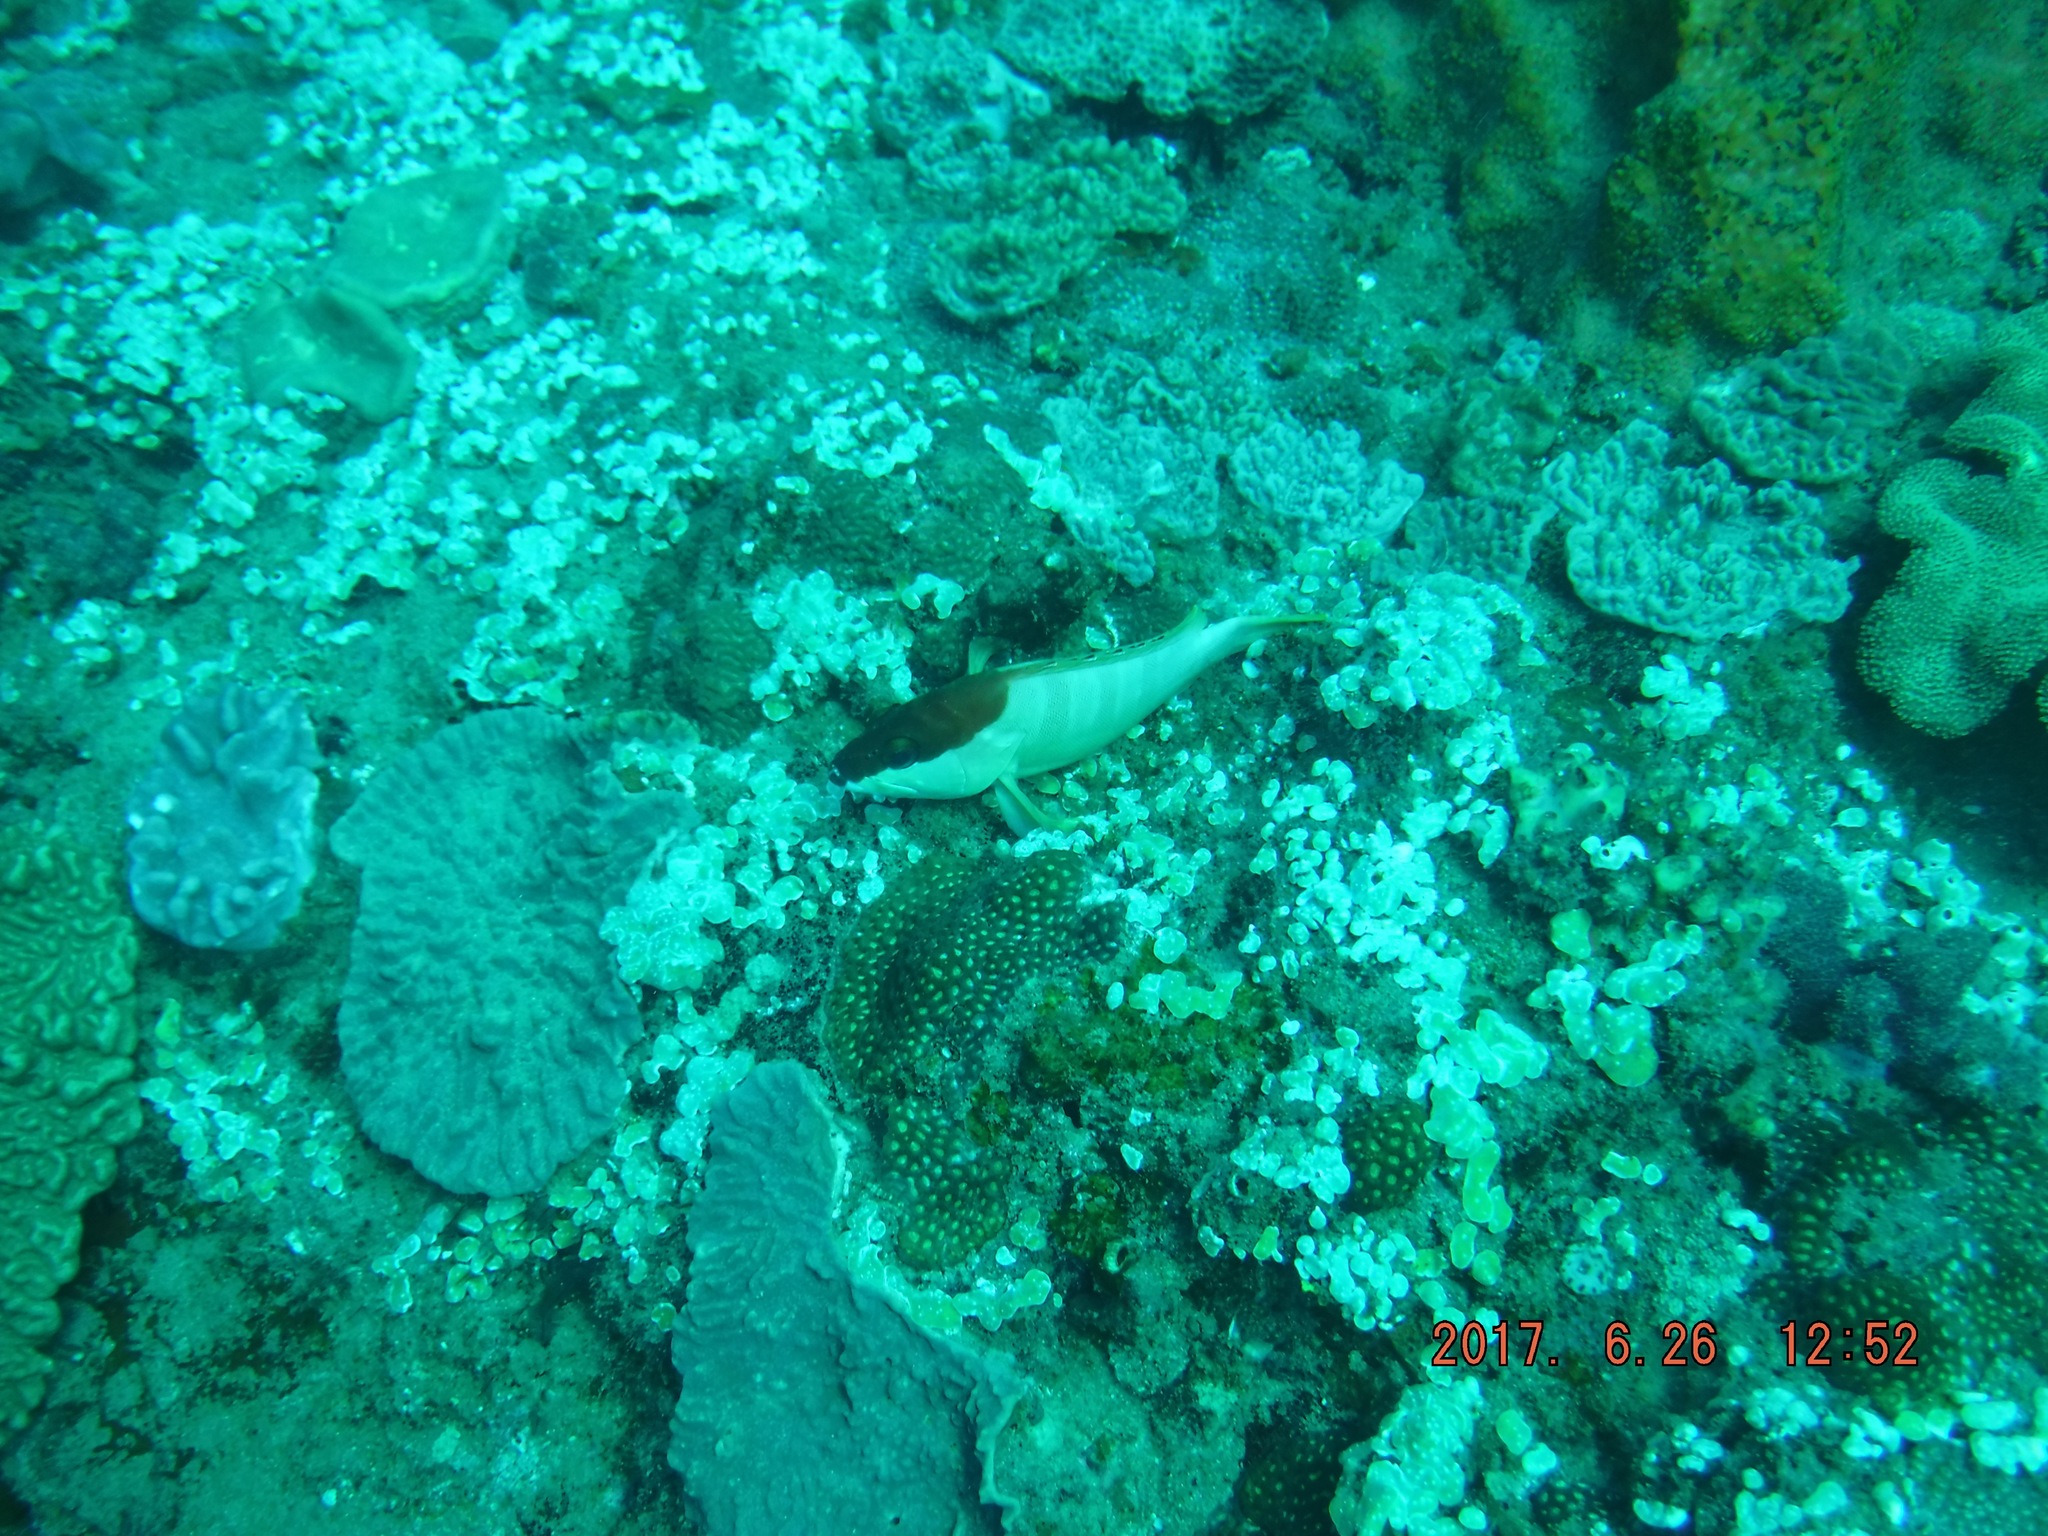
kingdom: Animalia
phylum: Chordata
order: Perciformes
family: Serranidae
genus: Epinephelus
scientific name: Epinephelus fasciatus
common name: Blacktip grouper
